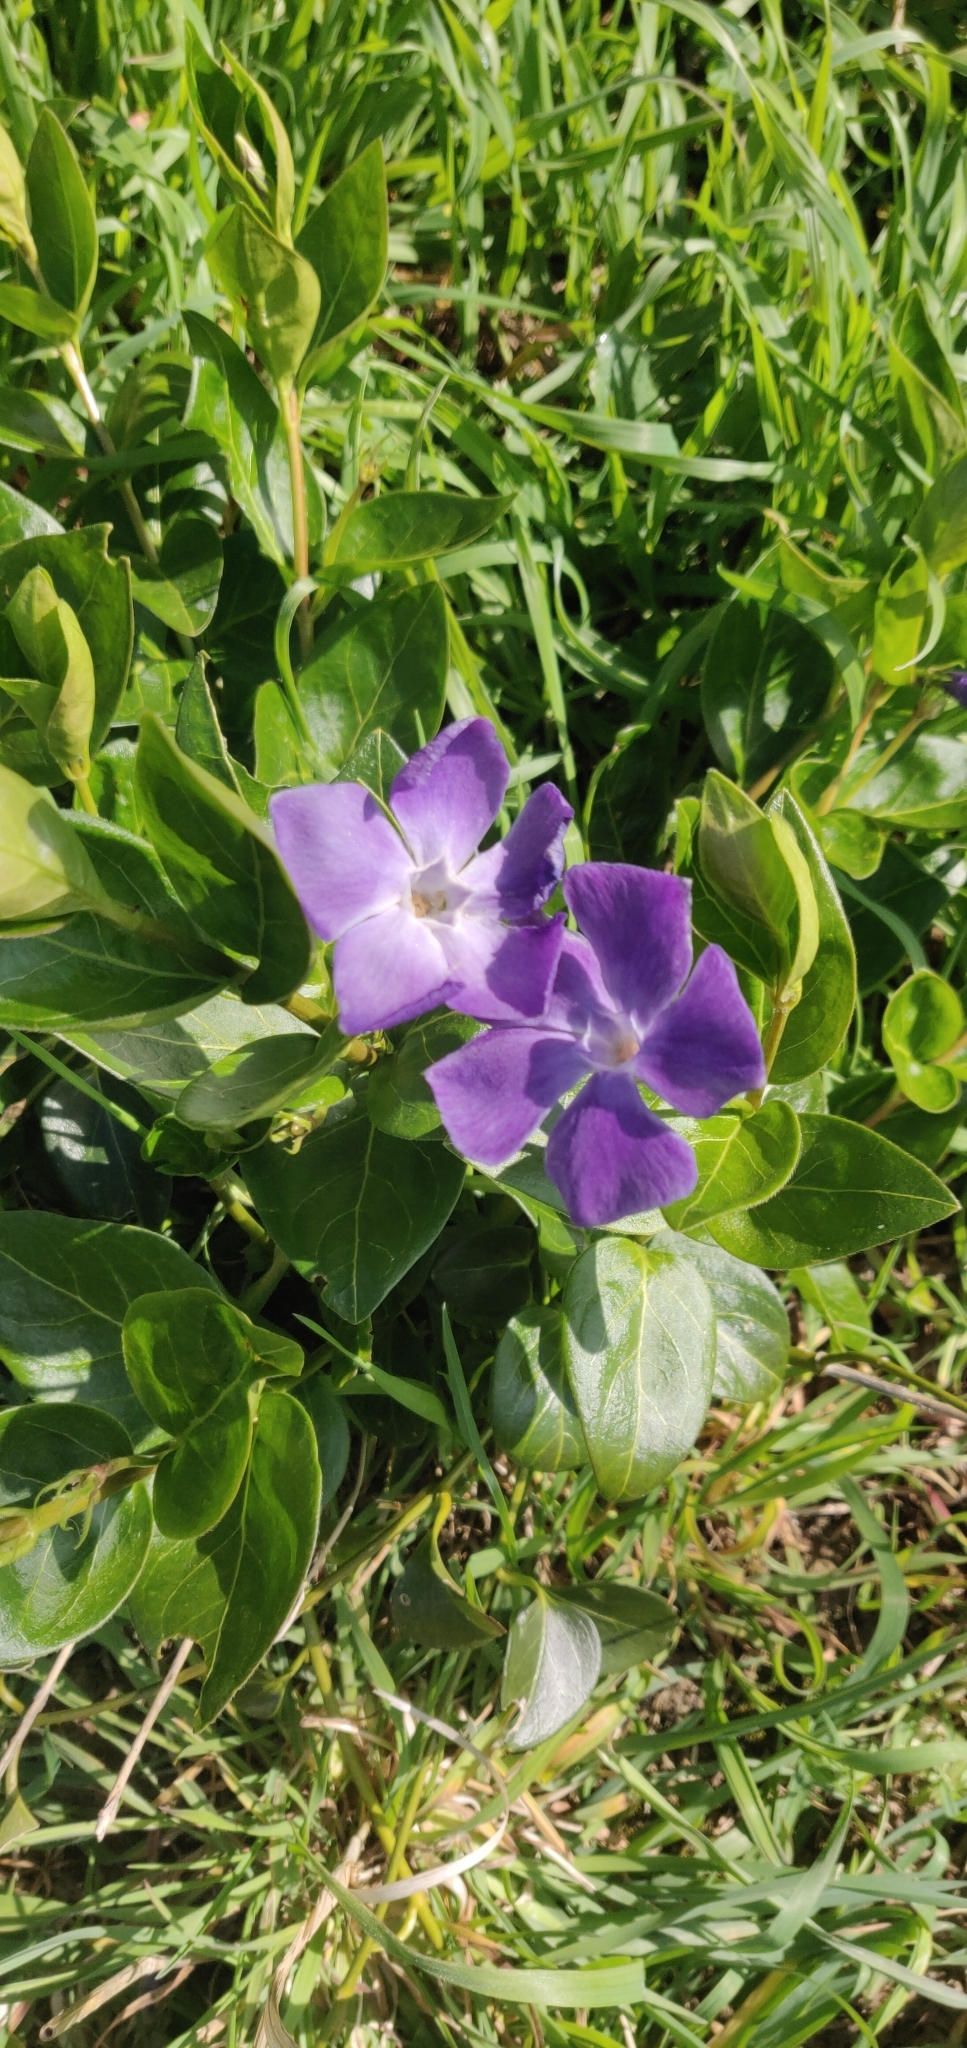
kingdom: Plantae
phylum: Tracheophyta
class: Magnoliopsida
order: Gentianales
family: Apocynaceae
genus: Vinca
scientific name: Vinca major
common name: Greater periwinkle
